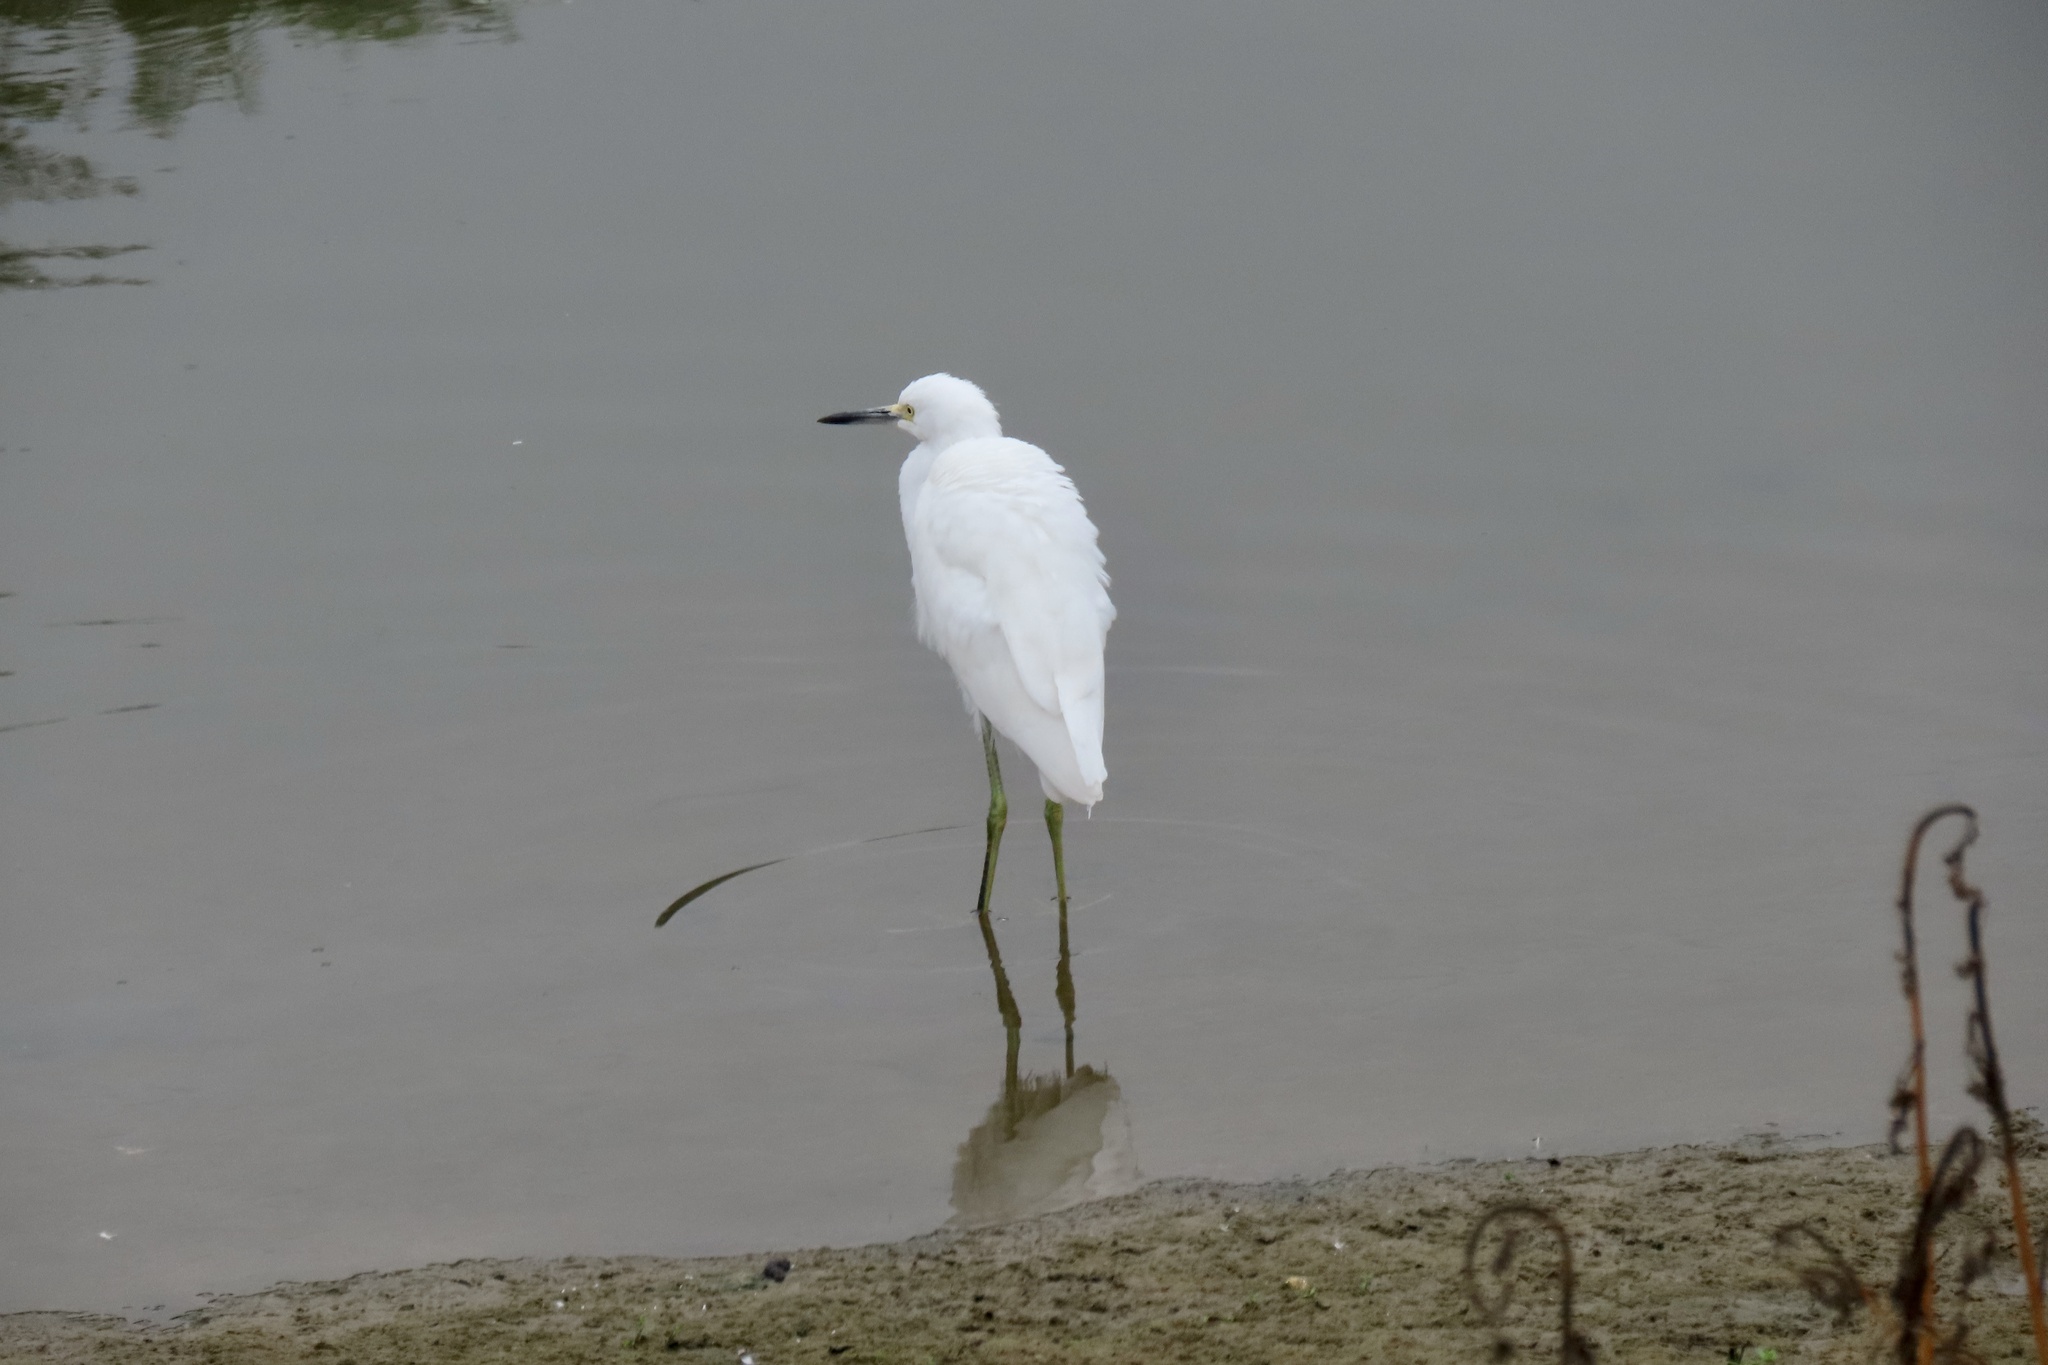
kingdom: Animalia
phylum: Chordata
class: Aves
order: Pelecaniformes
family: Ardeidae
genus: Egretta
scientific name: Egretta thula
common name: Snowy egret
